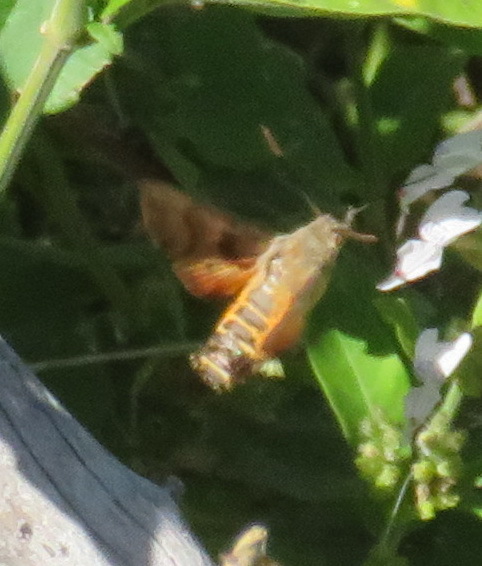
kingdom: Animalia
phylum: Arthropoda
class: Insecta
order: Lepidoptera
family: Sphingidae
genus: Macroglossum
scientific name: Macroglossum trochilus
